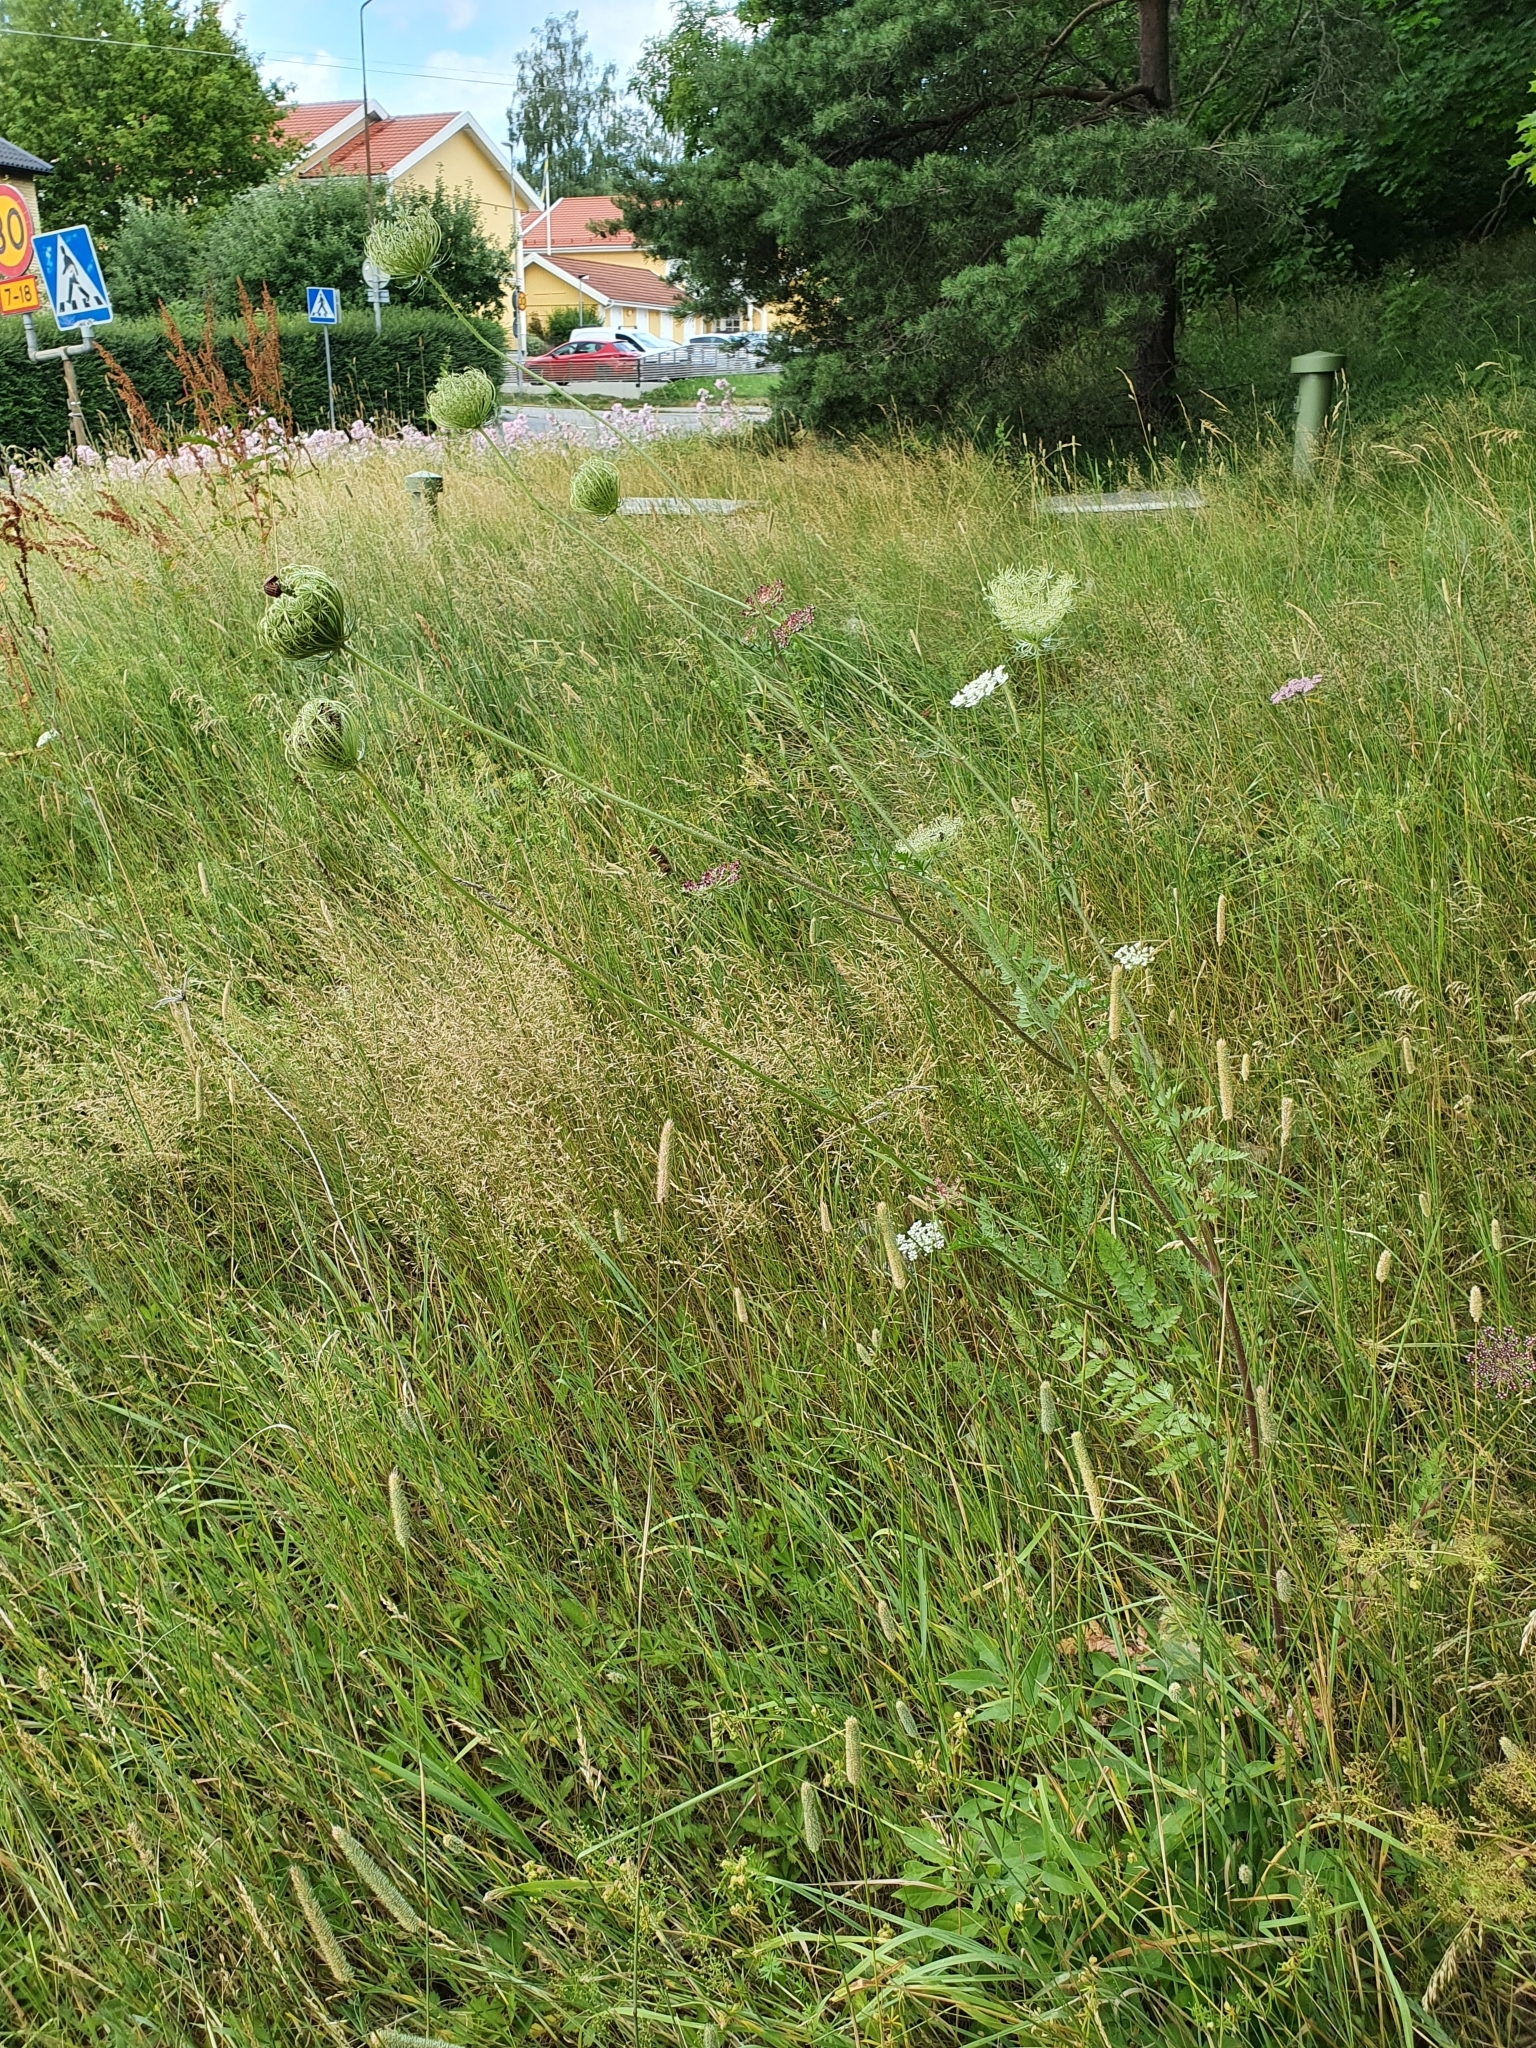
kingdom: Plantae
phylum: Tracheophyta
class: Magnoliopsida
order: Apiales
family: Apiaceae
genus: Daucus
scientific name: Daucus carota
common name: Wild carrot
